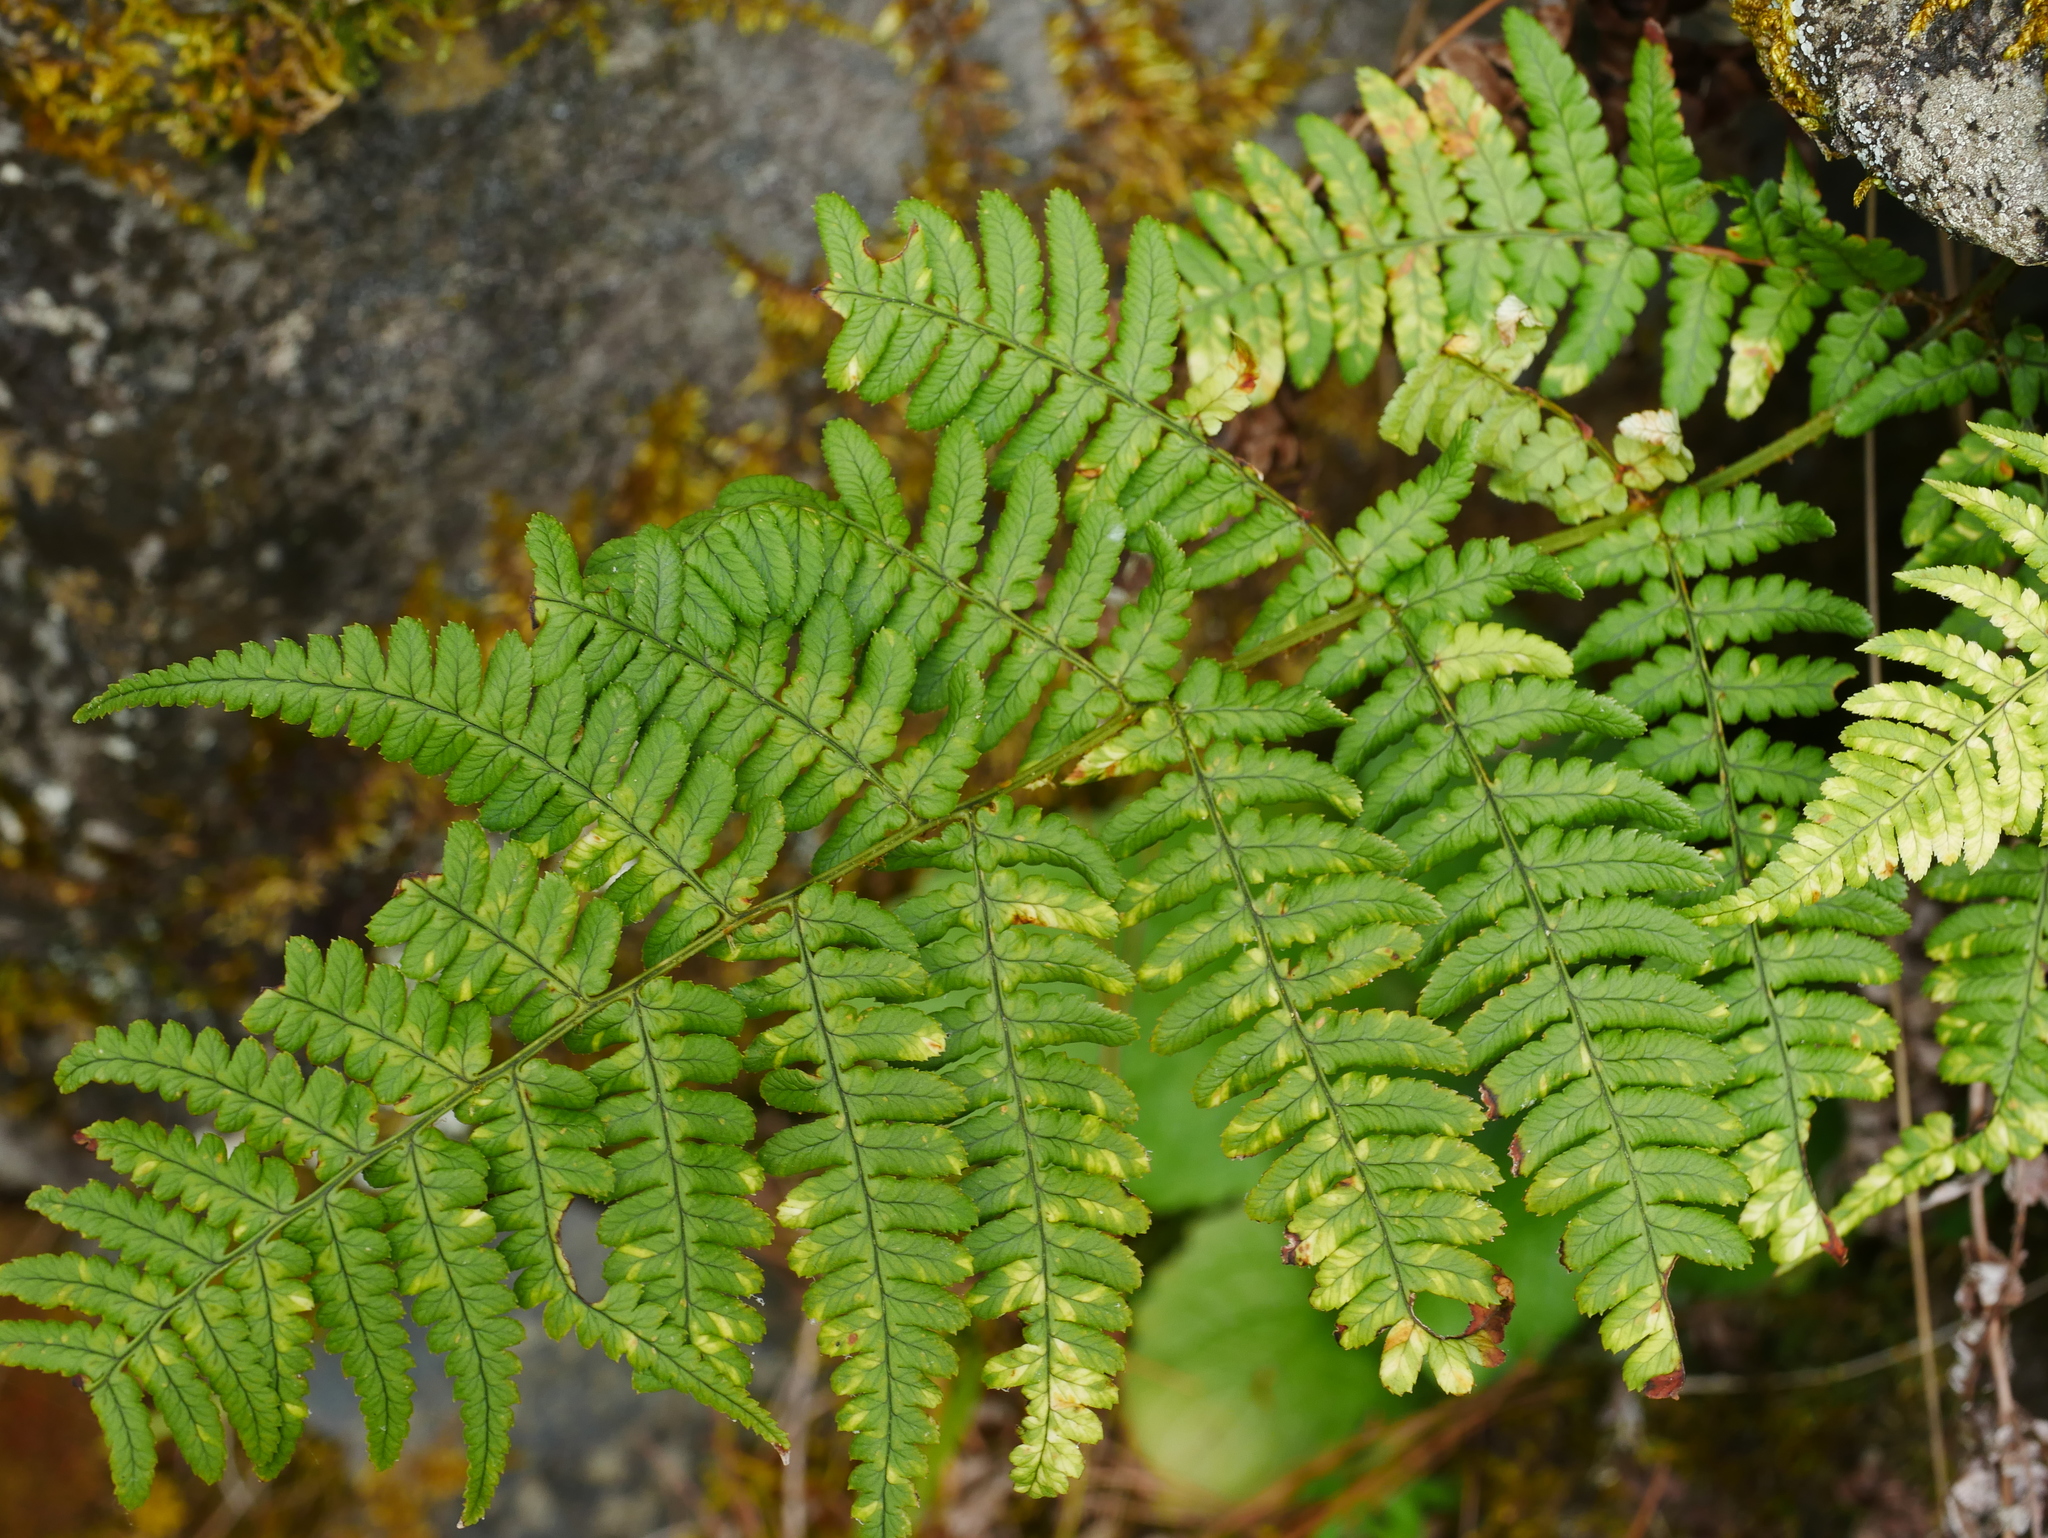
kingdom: Plantae
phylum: Tracheophyta
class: Polypodiopsida
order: Polypodiales
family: Dryopteridaceae
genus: Dryopteris
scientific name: Dryopteris lachoongensis
